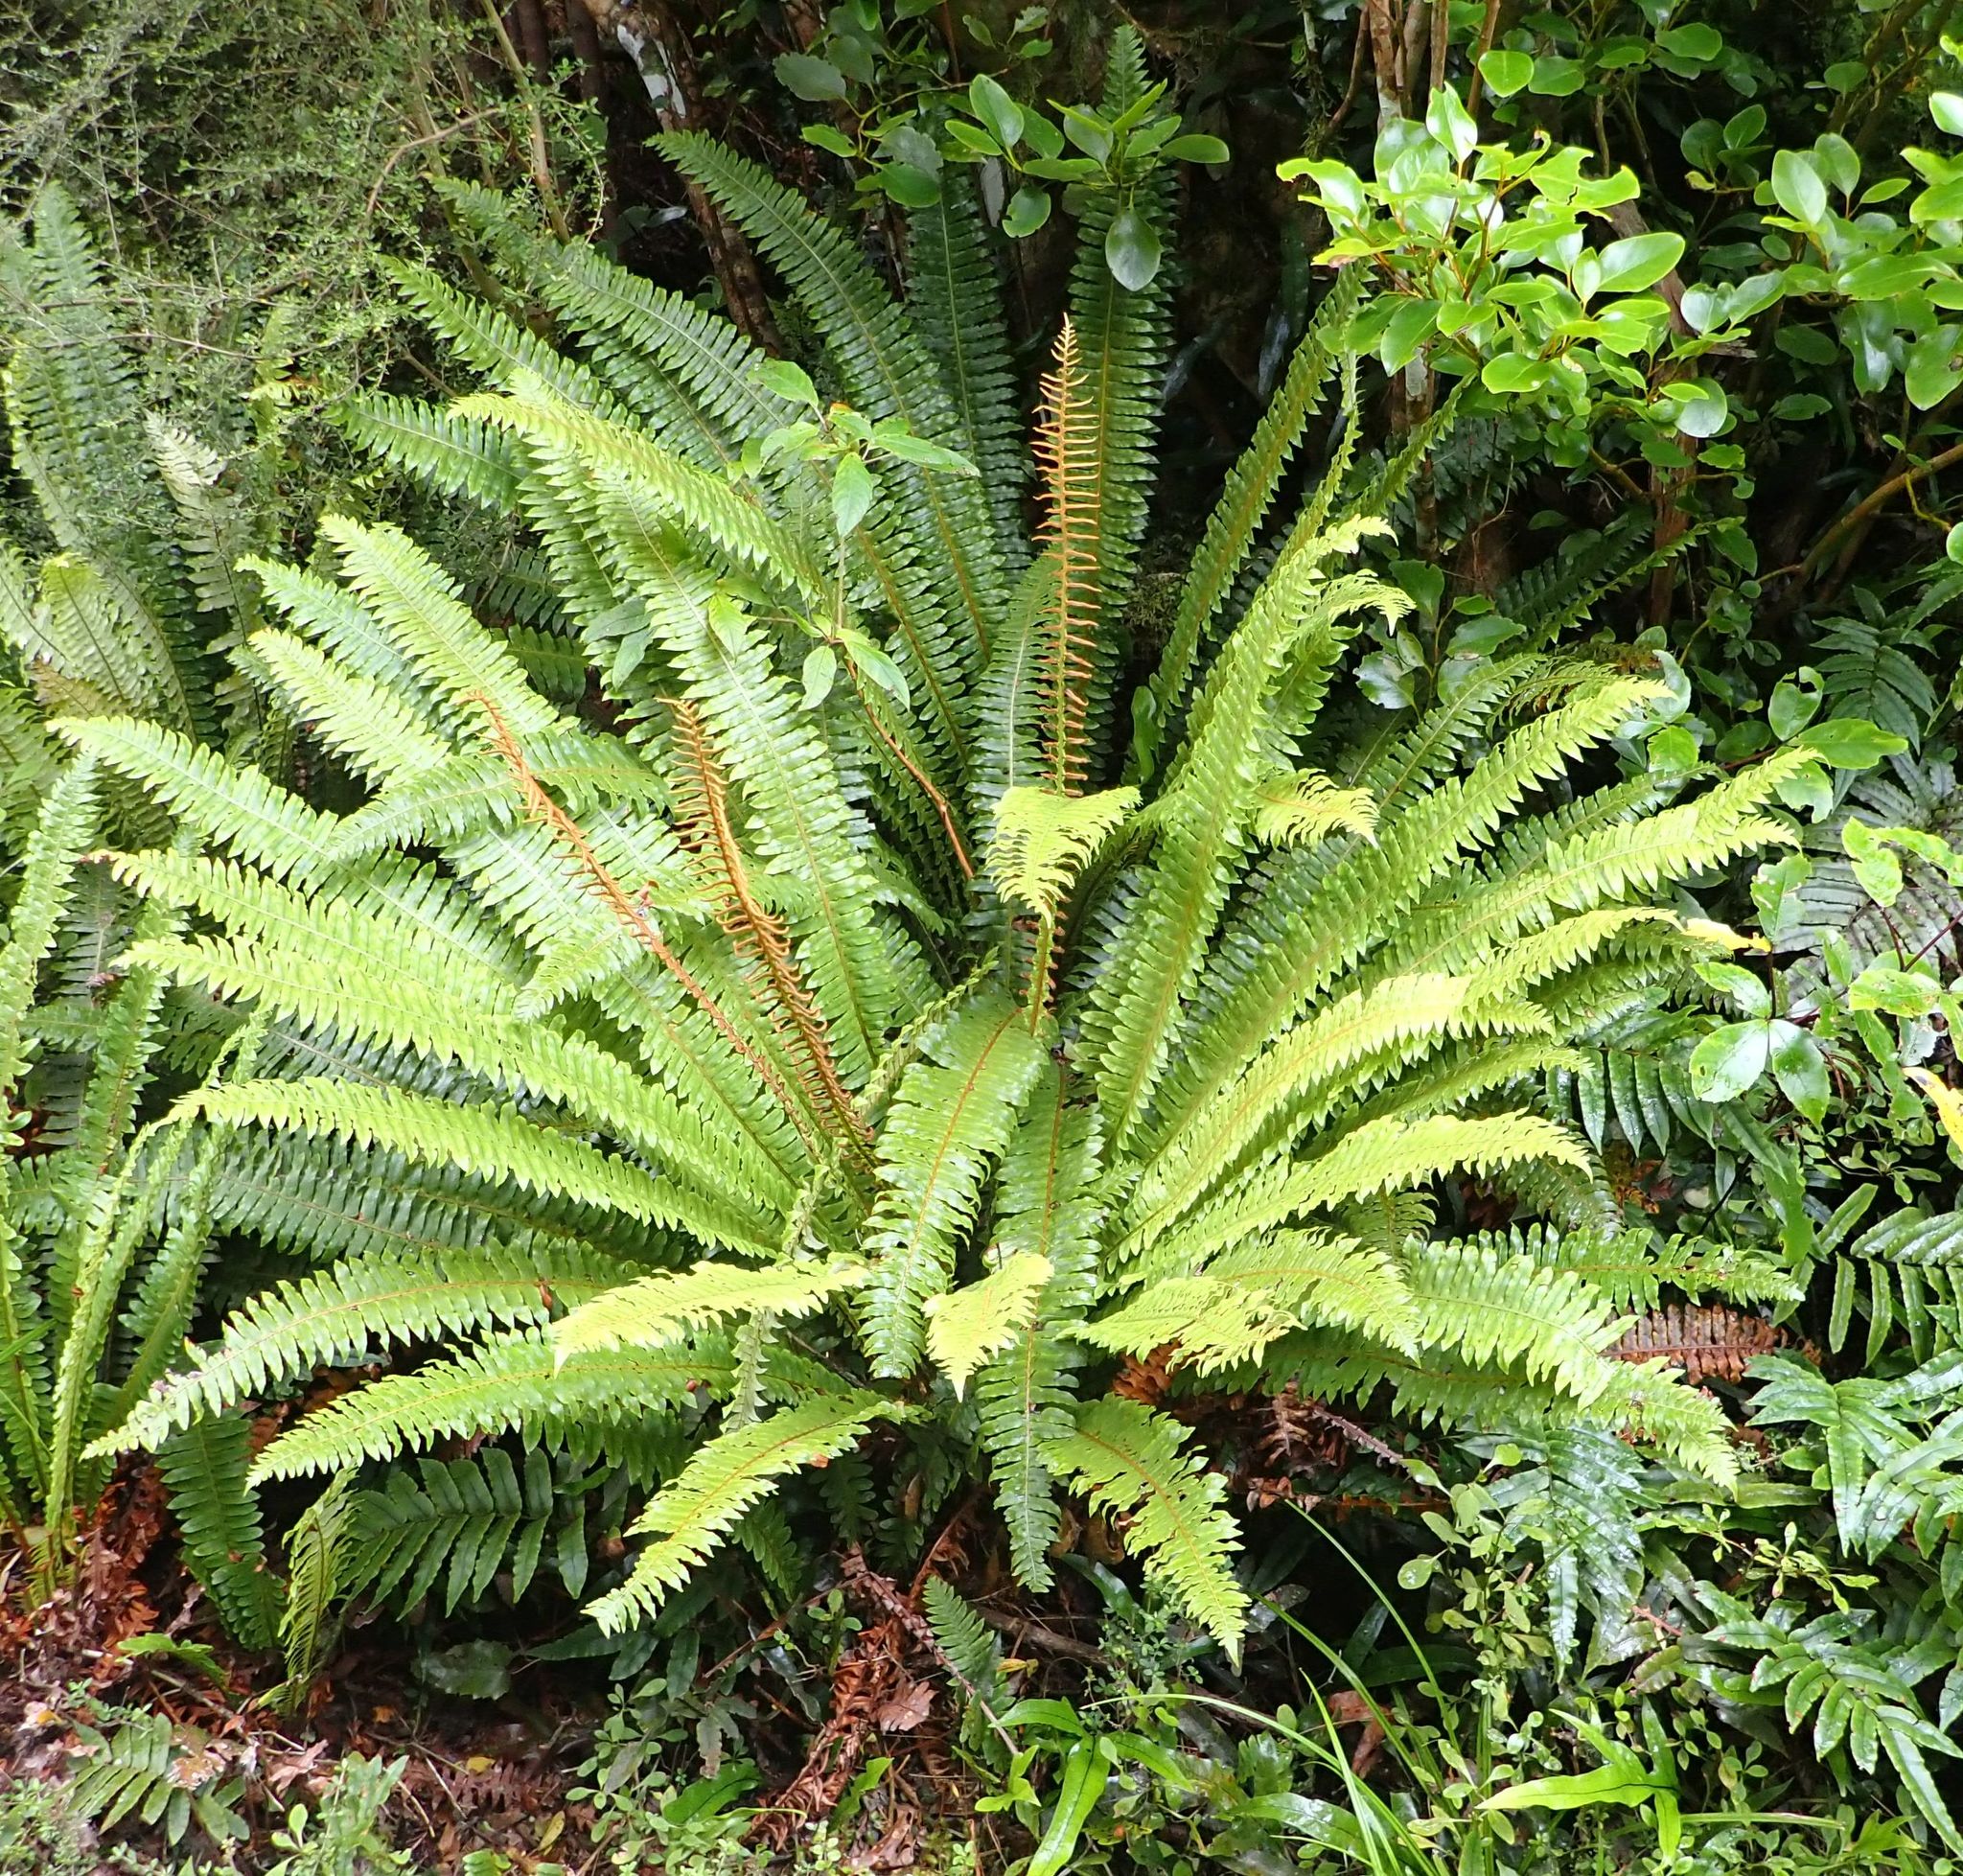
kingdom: Plantae
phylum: Tracheophyta
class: Polypodiopsida
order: Polypodiales
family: Blechnaceae
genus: Lomaria
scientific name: Lomaria discolor
